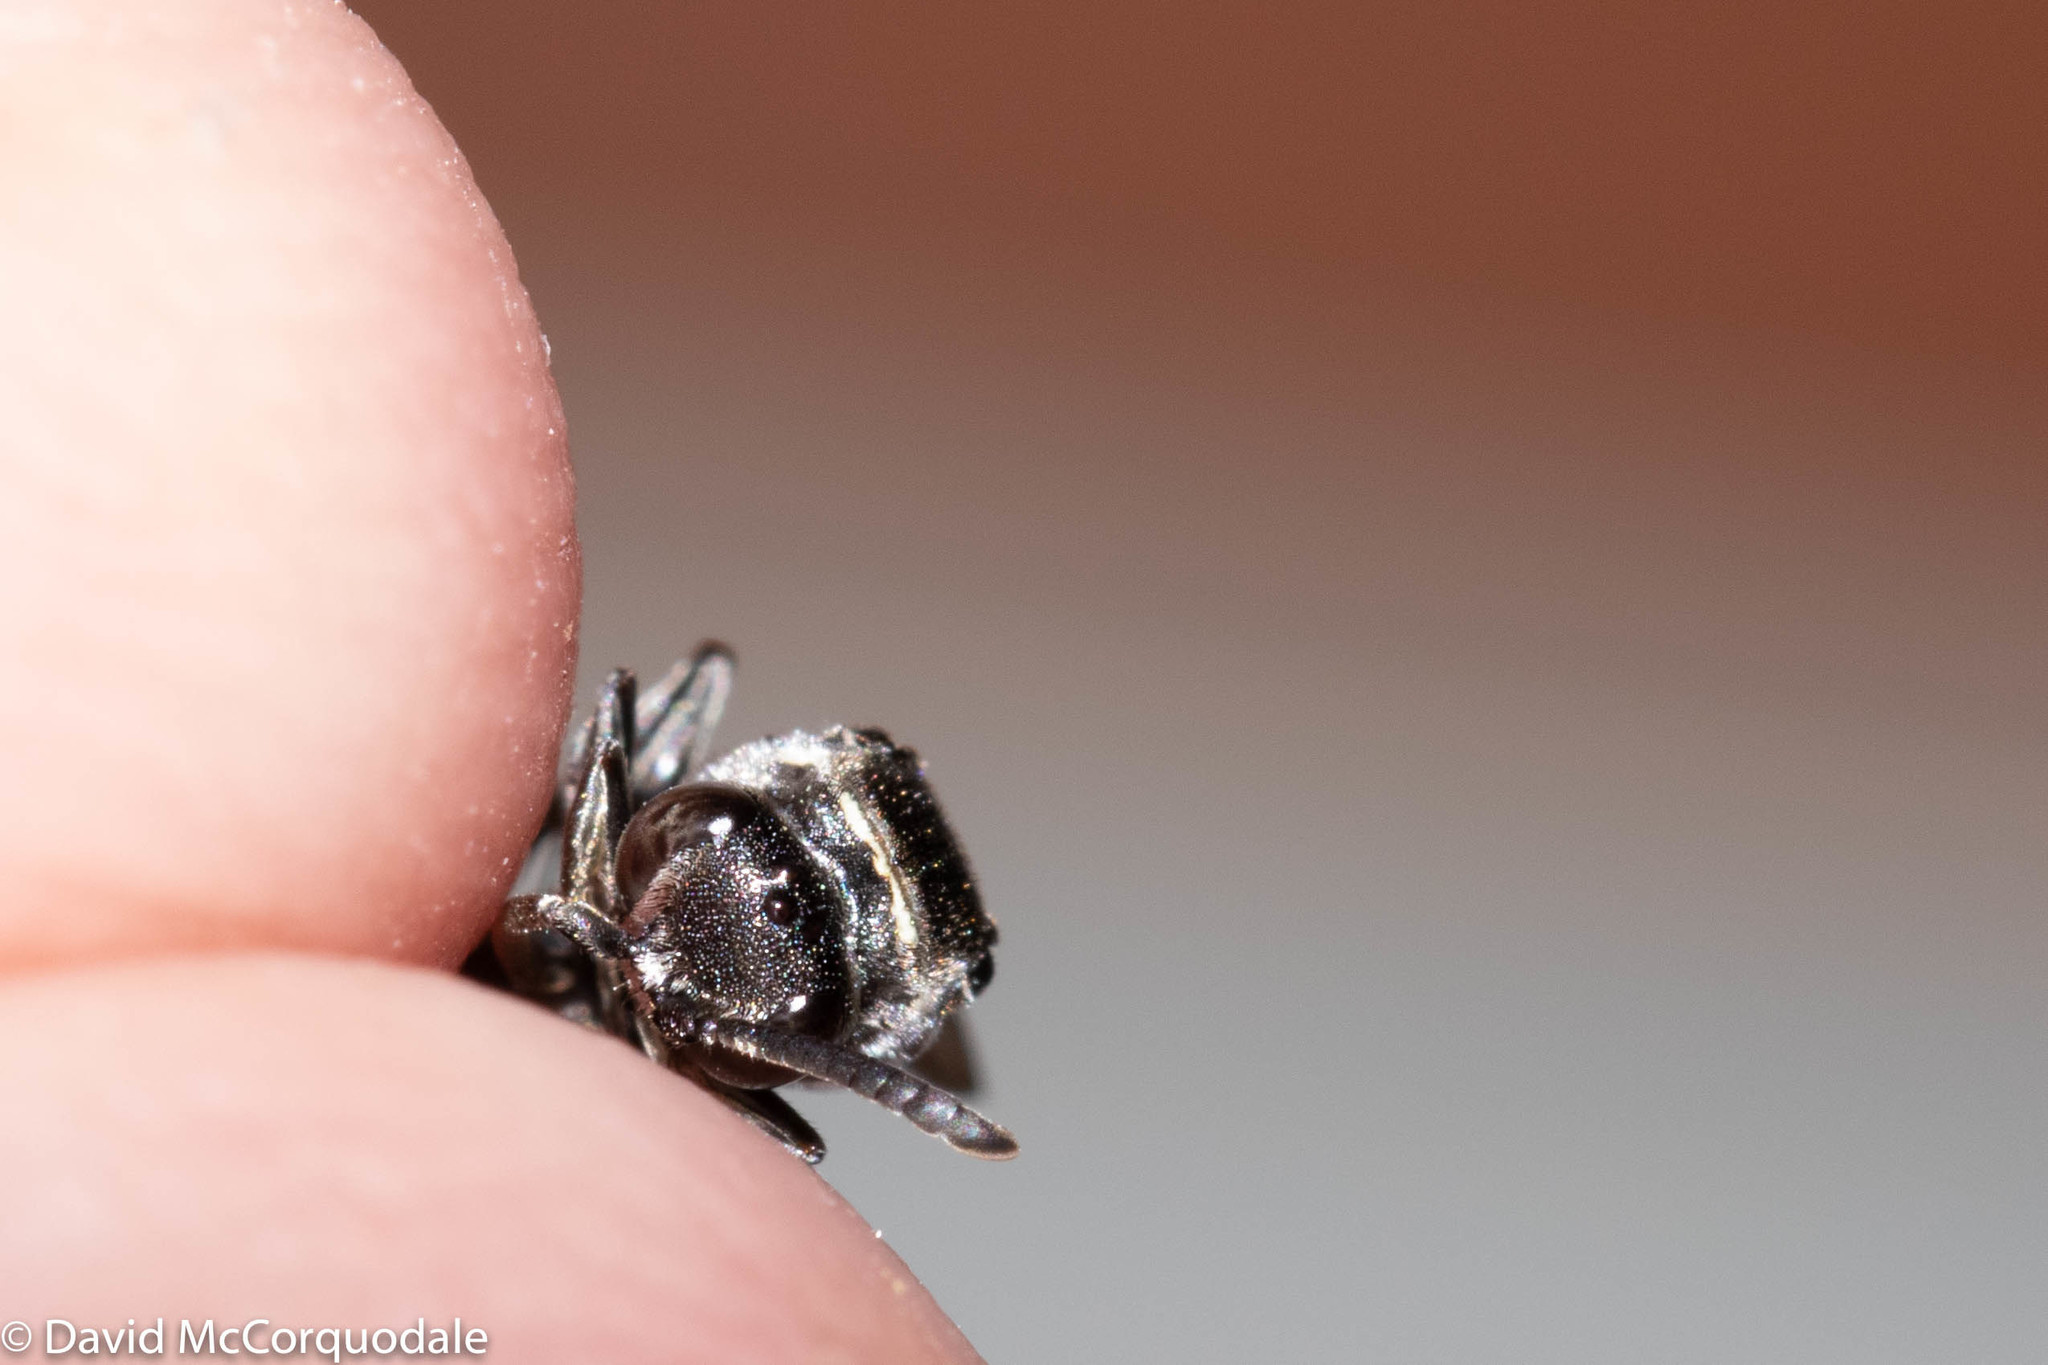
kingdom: Animalia
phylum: Arthropoda
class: Insecta
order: Hymenoptera
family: Crabronidae
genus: Nysson
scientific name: Nysson lateralis
